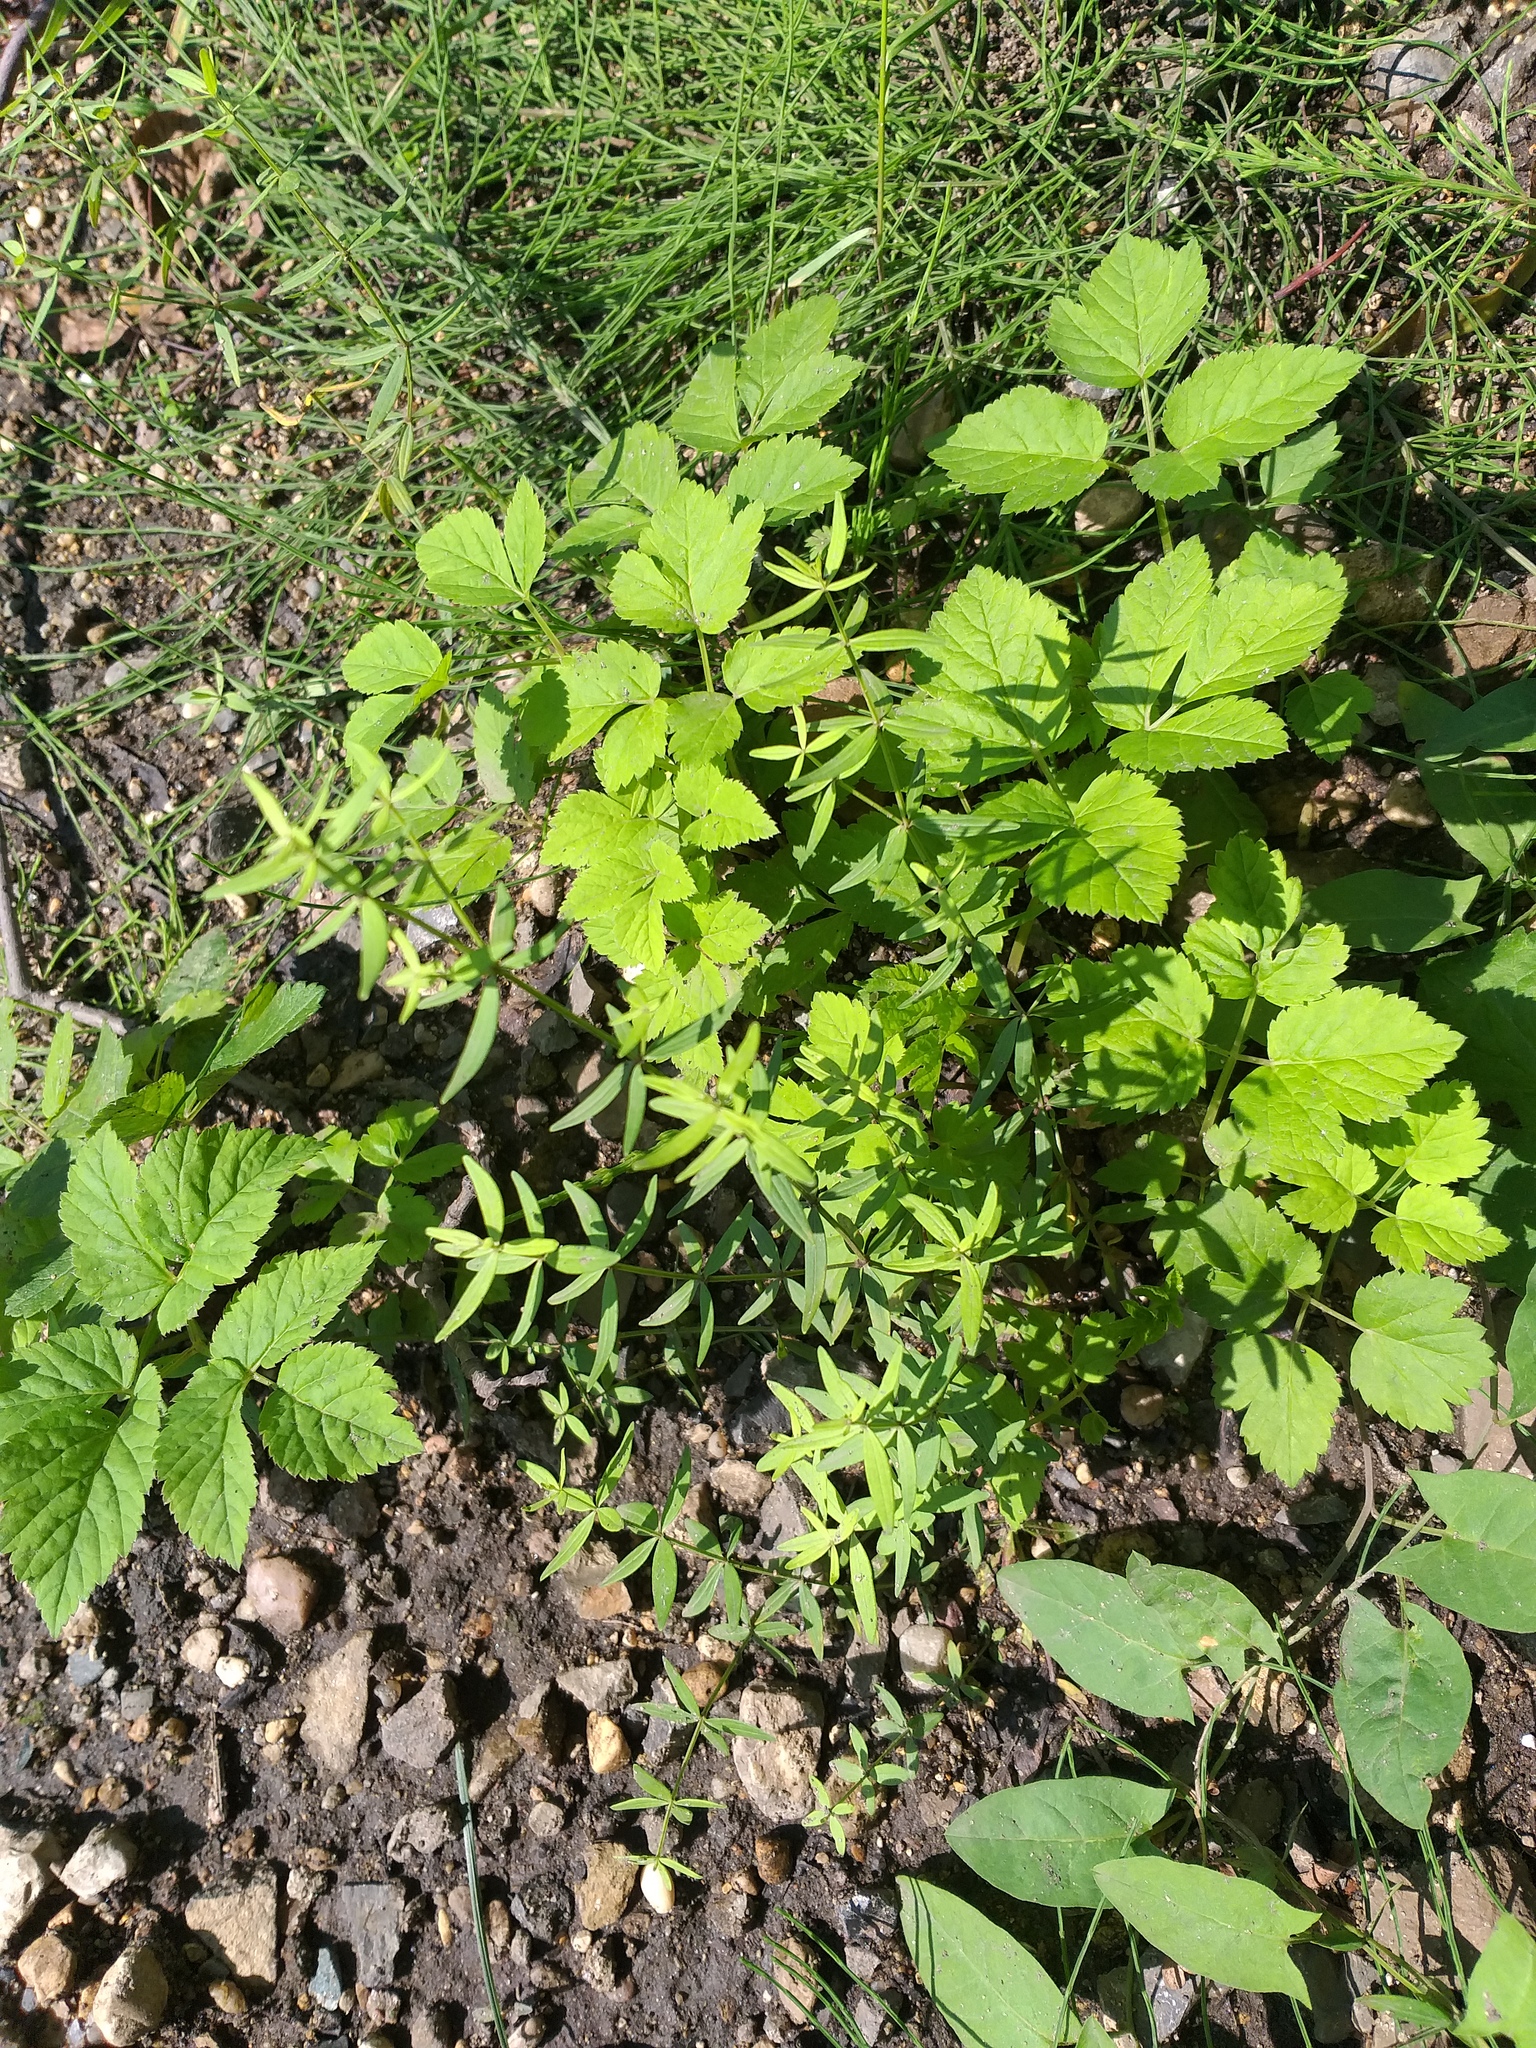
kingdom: Plantae
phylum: Tracheophyta
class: Magnoliopsida
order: Gentianales
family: Rubiaceae
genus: Galium
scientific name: Galium boreale
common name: Northern bedstraw
